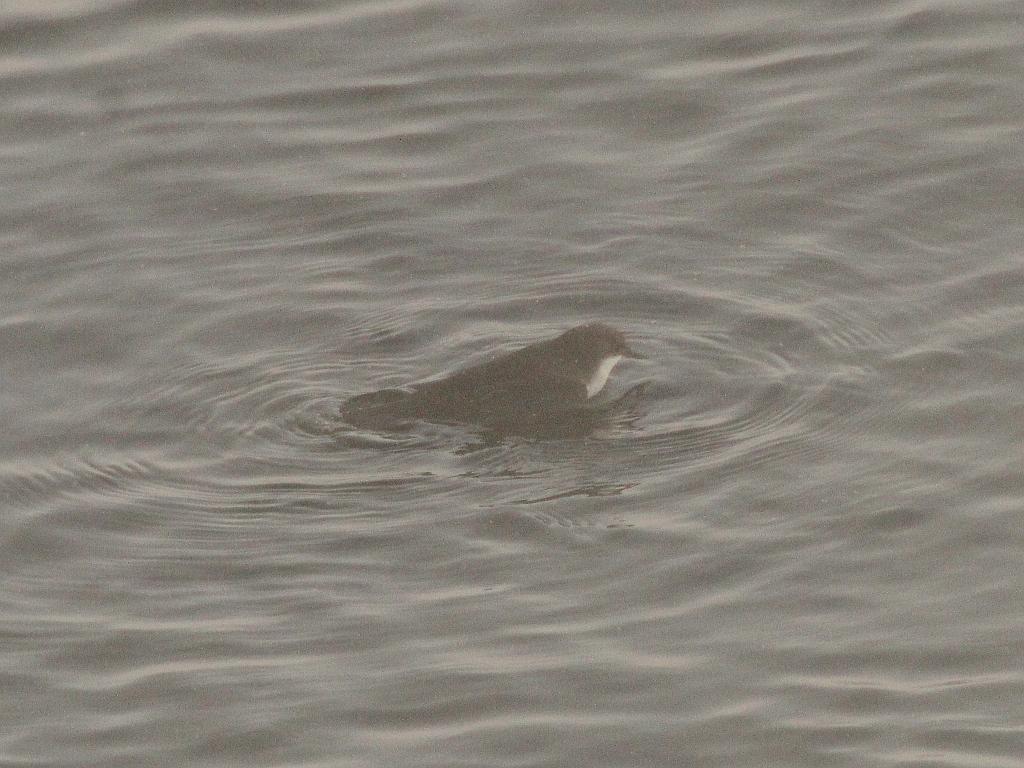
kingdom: Animalia
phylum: Chordata
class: Aves
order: Passeriformes
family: Cinclidae
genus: Cinclus
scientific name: Cinclus cinclus
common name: White-throated dipper
